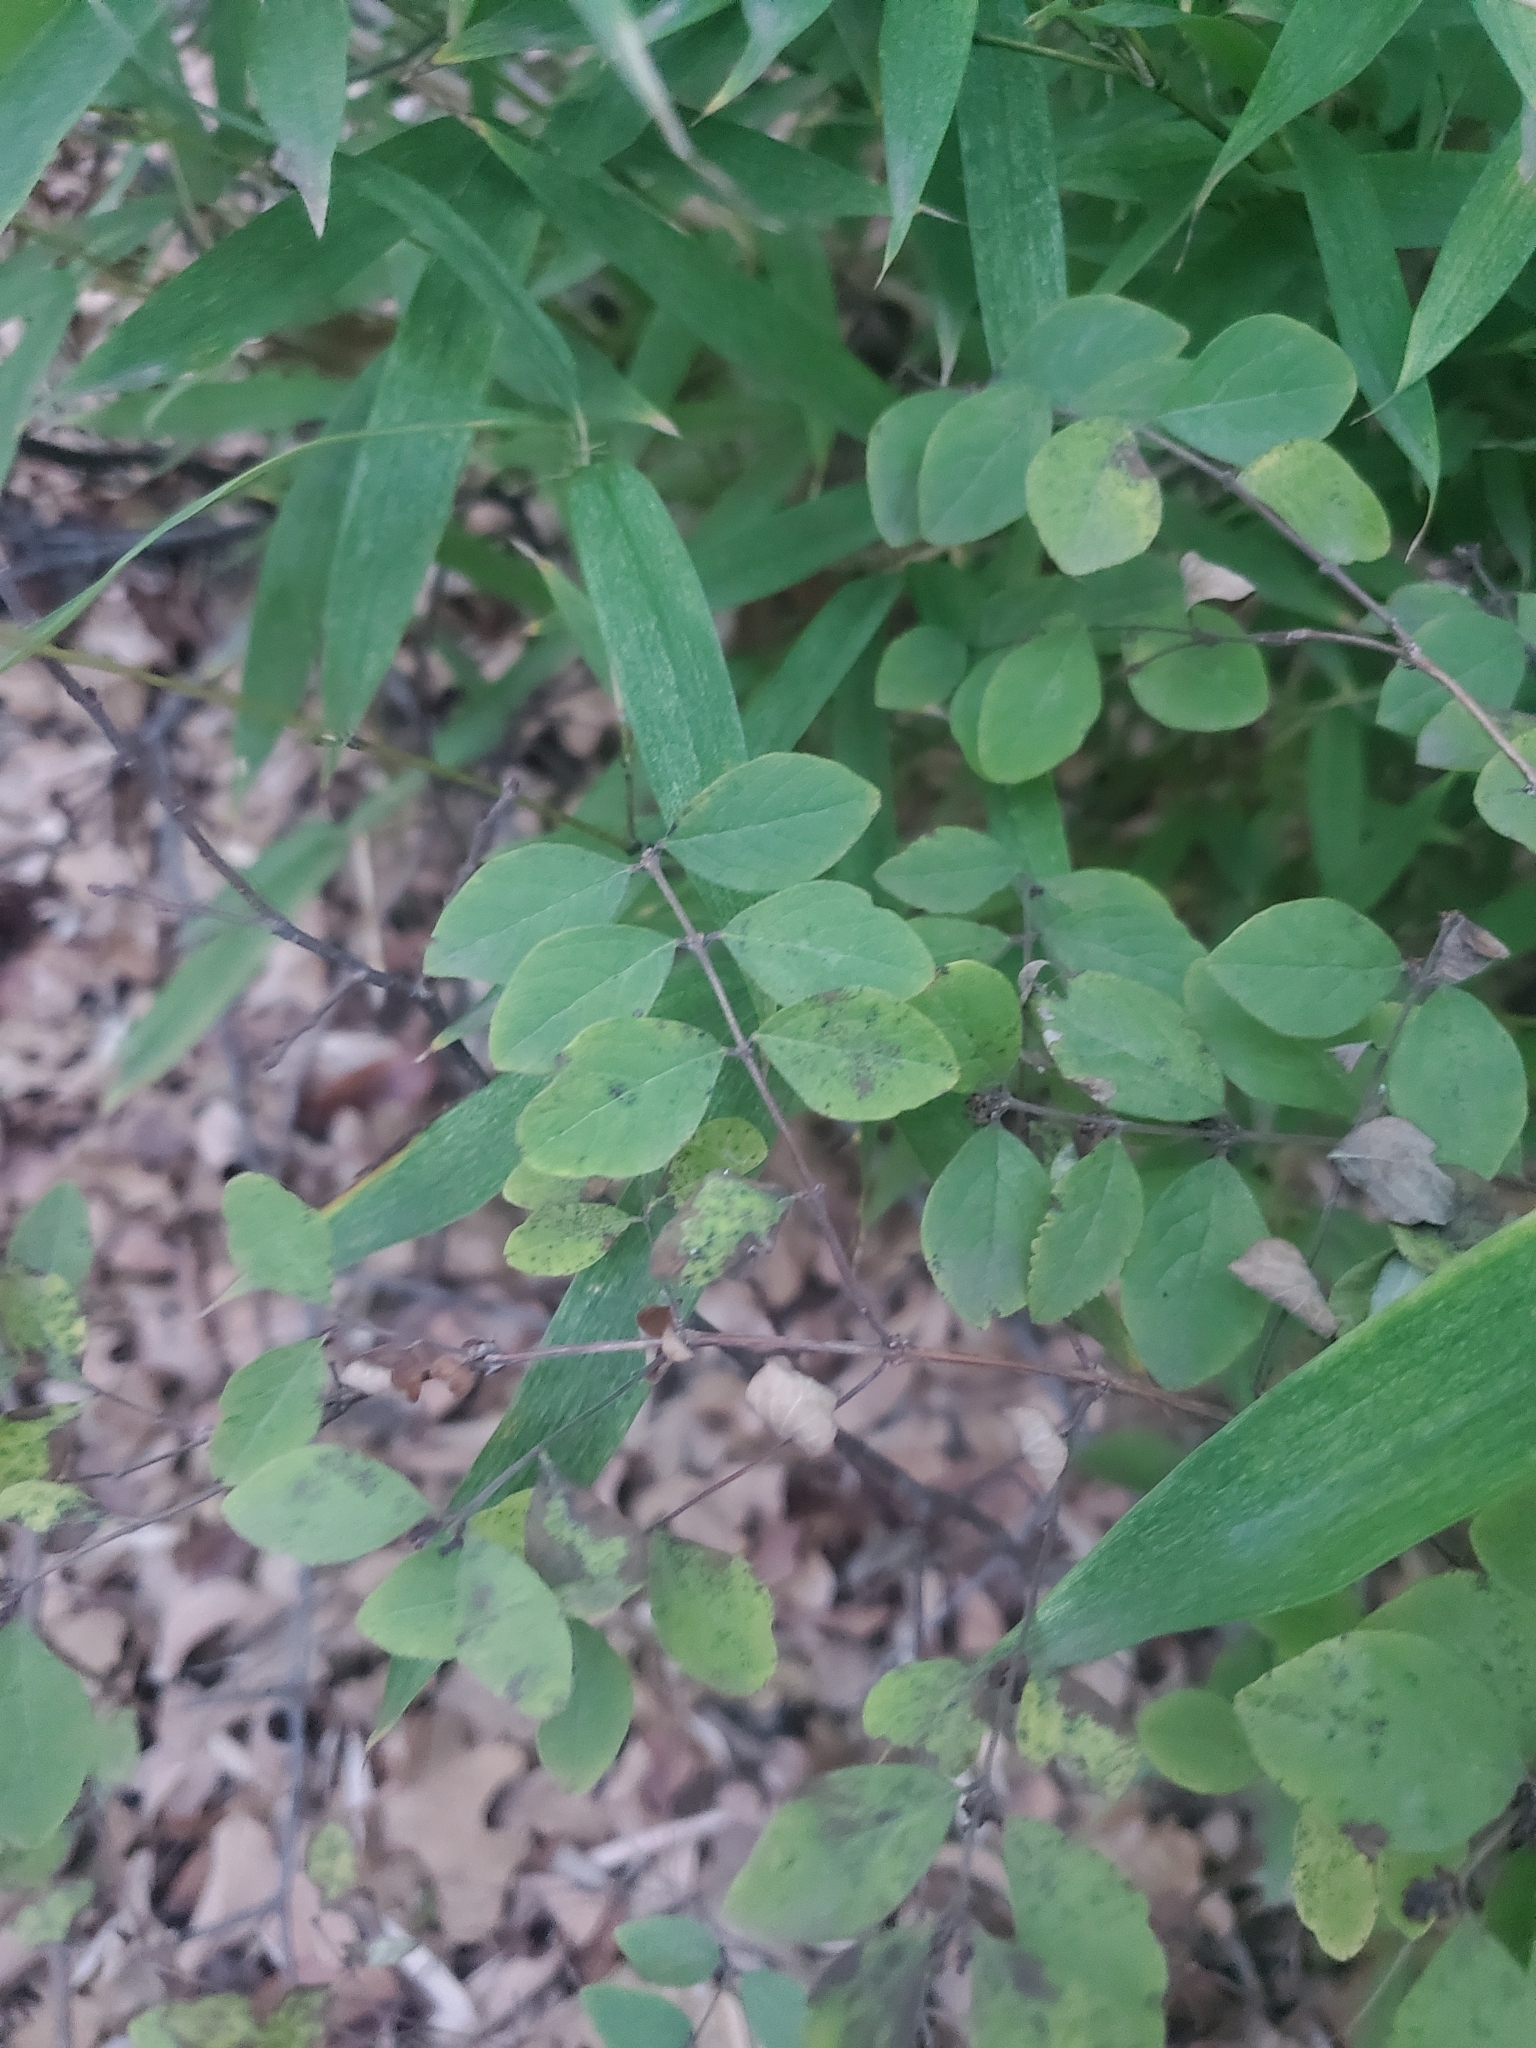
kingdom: Plantae
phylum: Tracheophyta
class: Magnoliopsida
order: Dipsacales
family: Caprifoliaceae
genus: Symphoricarpos
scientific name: Symphoricarpos orbiculatus
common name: Coralberry
